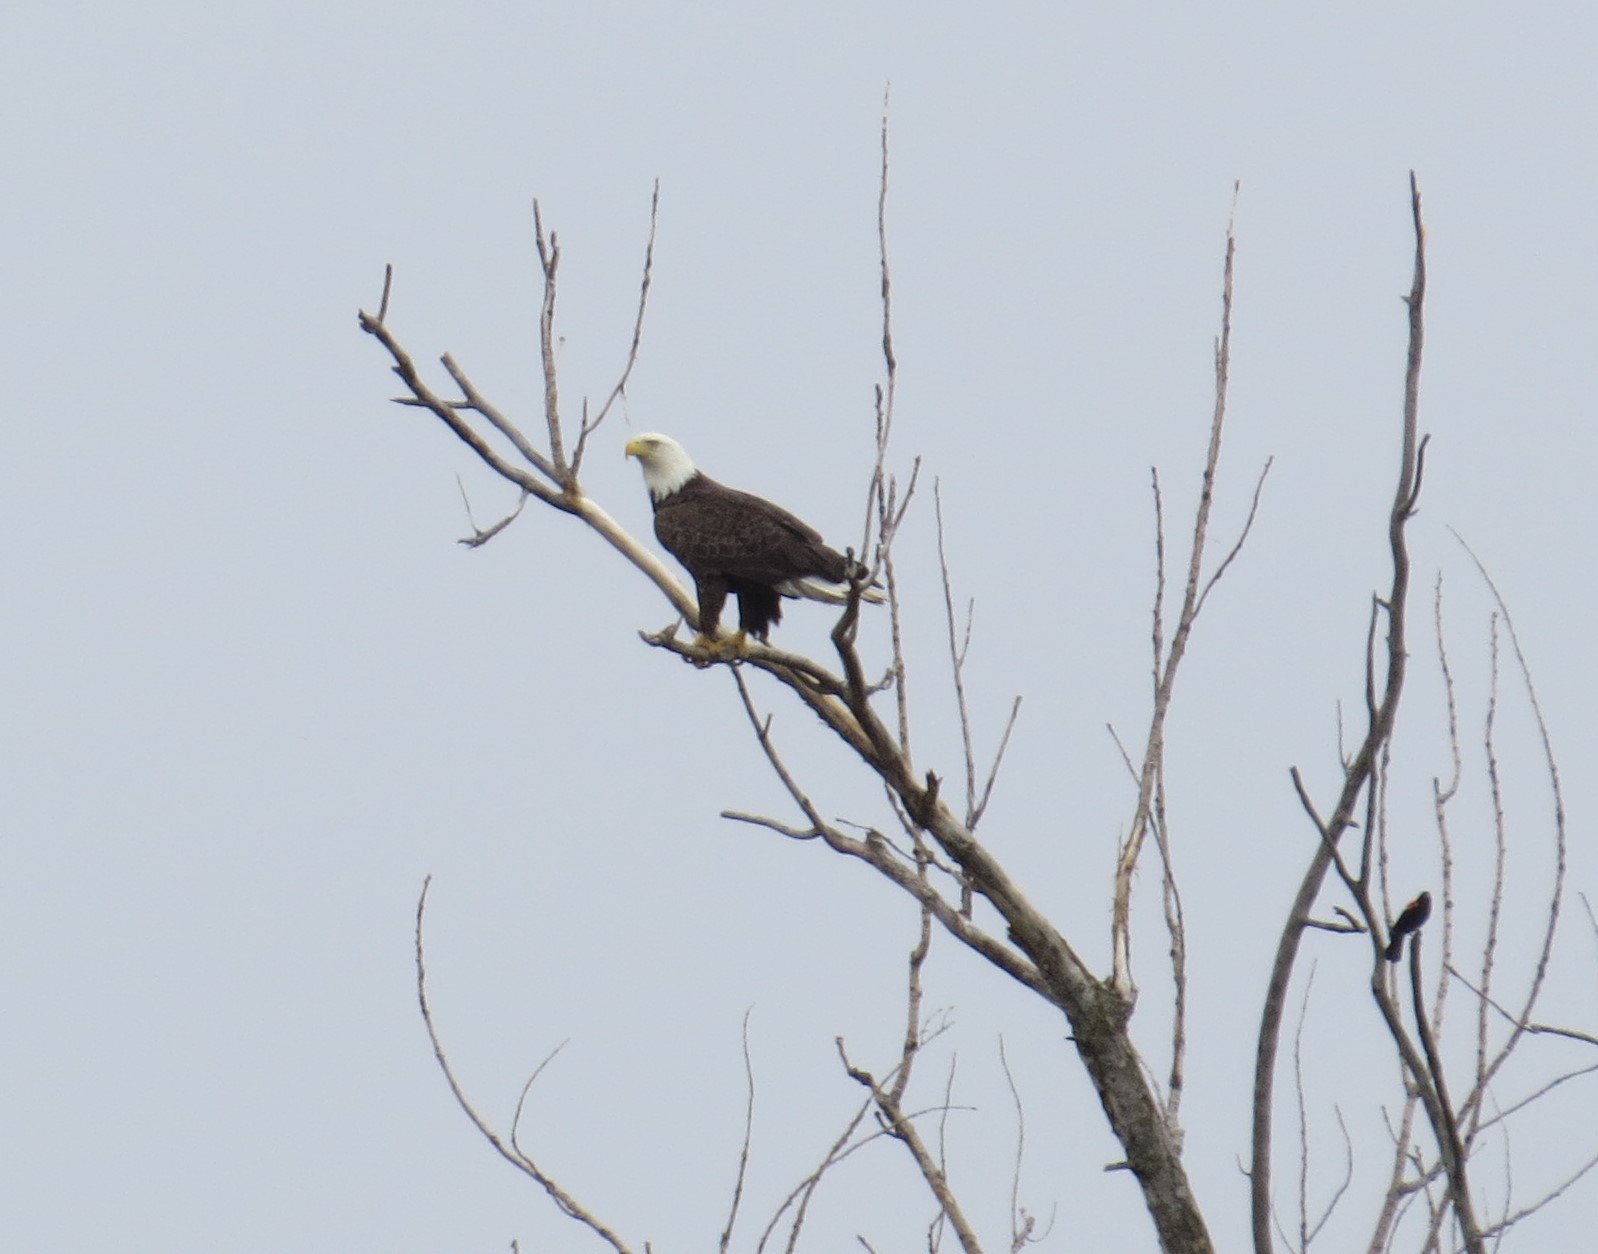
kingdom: Animalia
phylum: Chordata
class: Aves
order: Accipitriformes
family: Accipitridae
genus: Haliaeetus
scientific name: Haliaeetus leucocephalus
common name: Bald eagle
